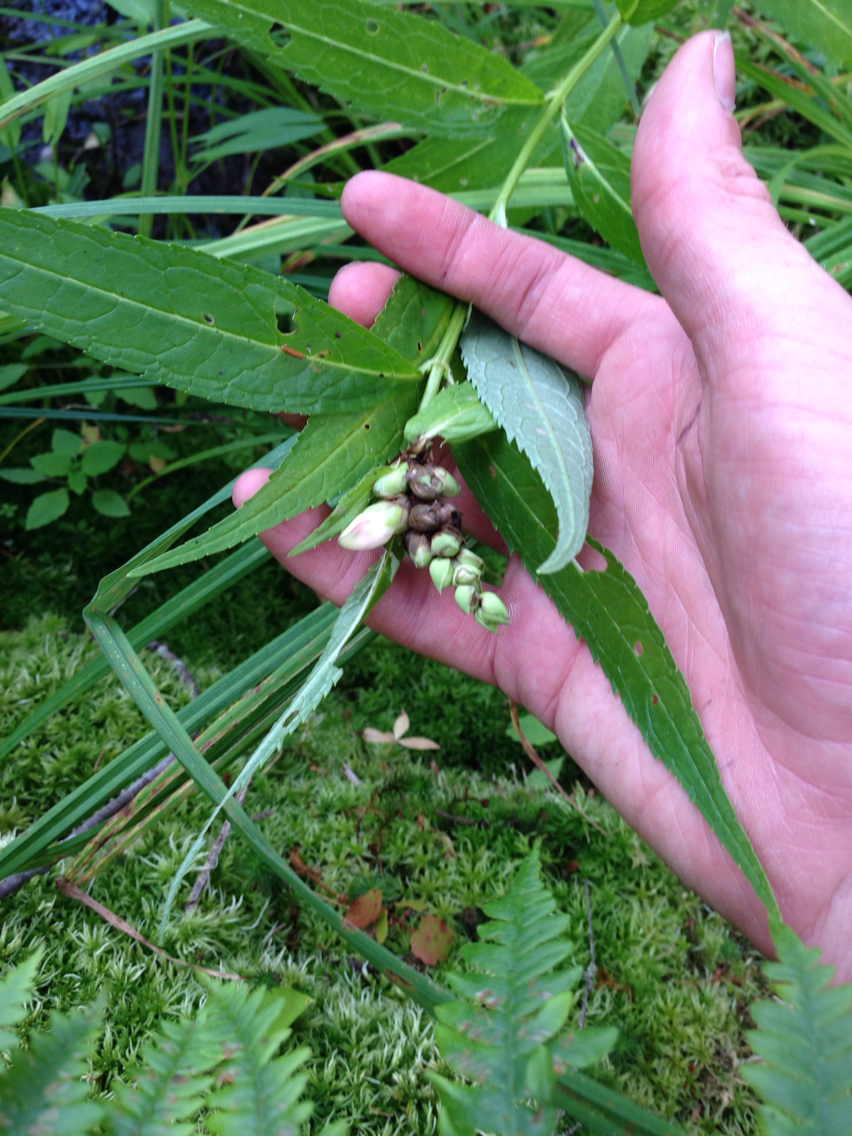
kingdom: Plantae
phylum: Tracheophyta
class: Magnoliopsida
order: Lamiales
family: Plantaginaceae
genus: Chelone
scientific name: Chelone glabra
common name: Snakehead
